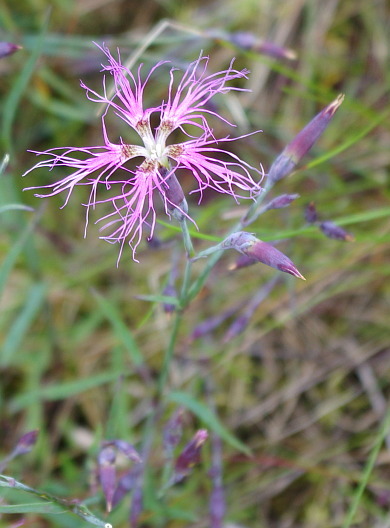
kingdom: Plantae
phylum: Tracheophyta
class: Magnoliopsida
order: Caryophyllales
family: Caryophyllaceae
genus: Dianthus
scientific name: Dianthus superbus
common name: Fringed pink
